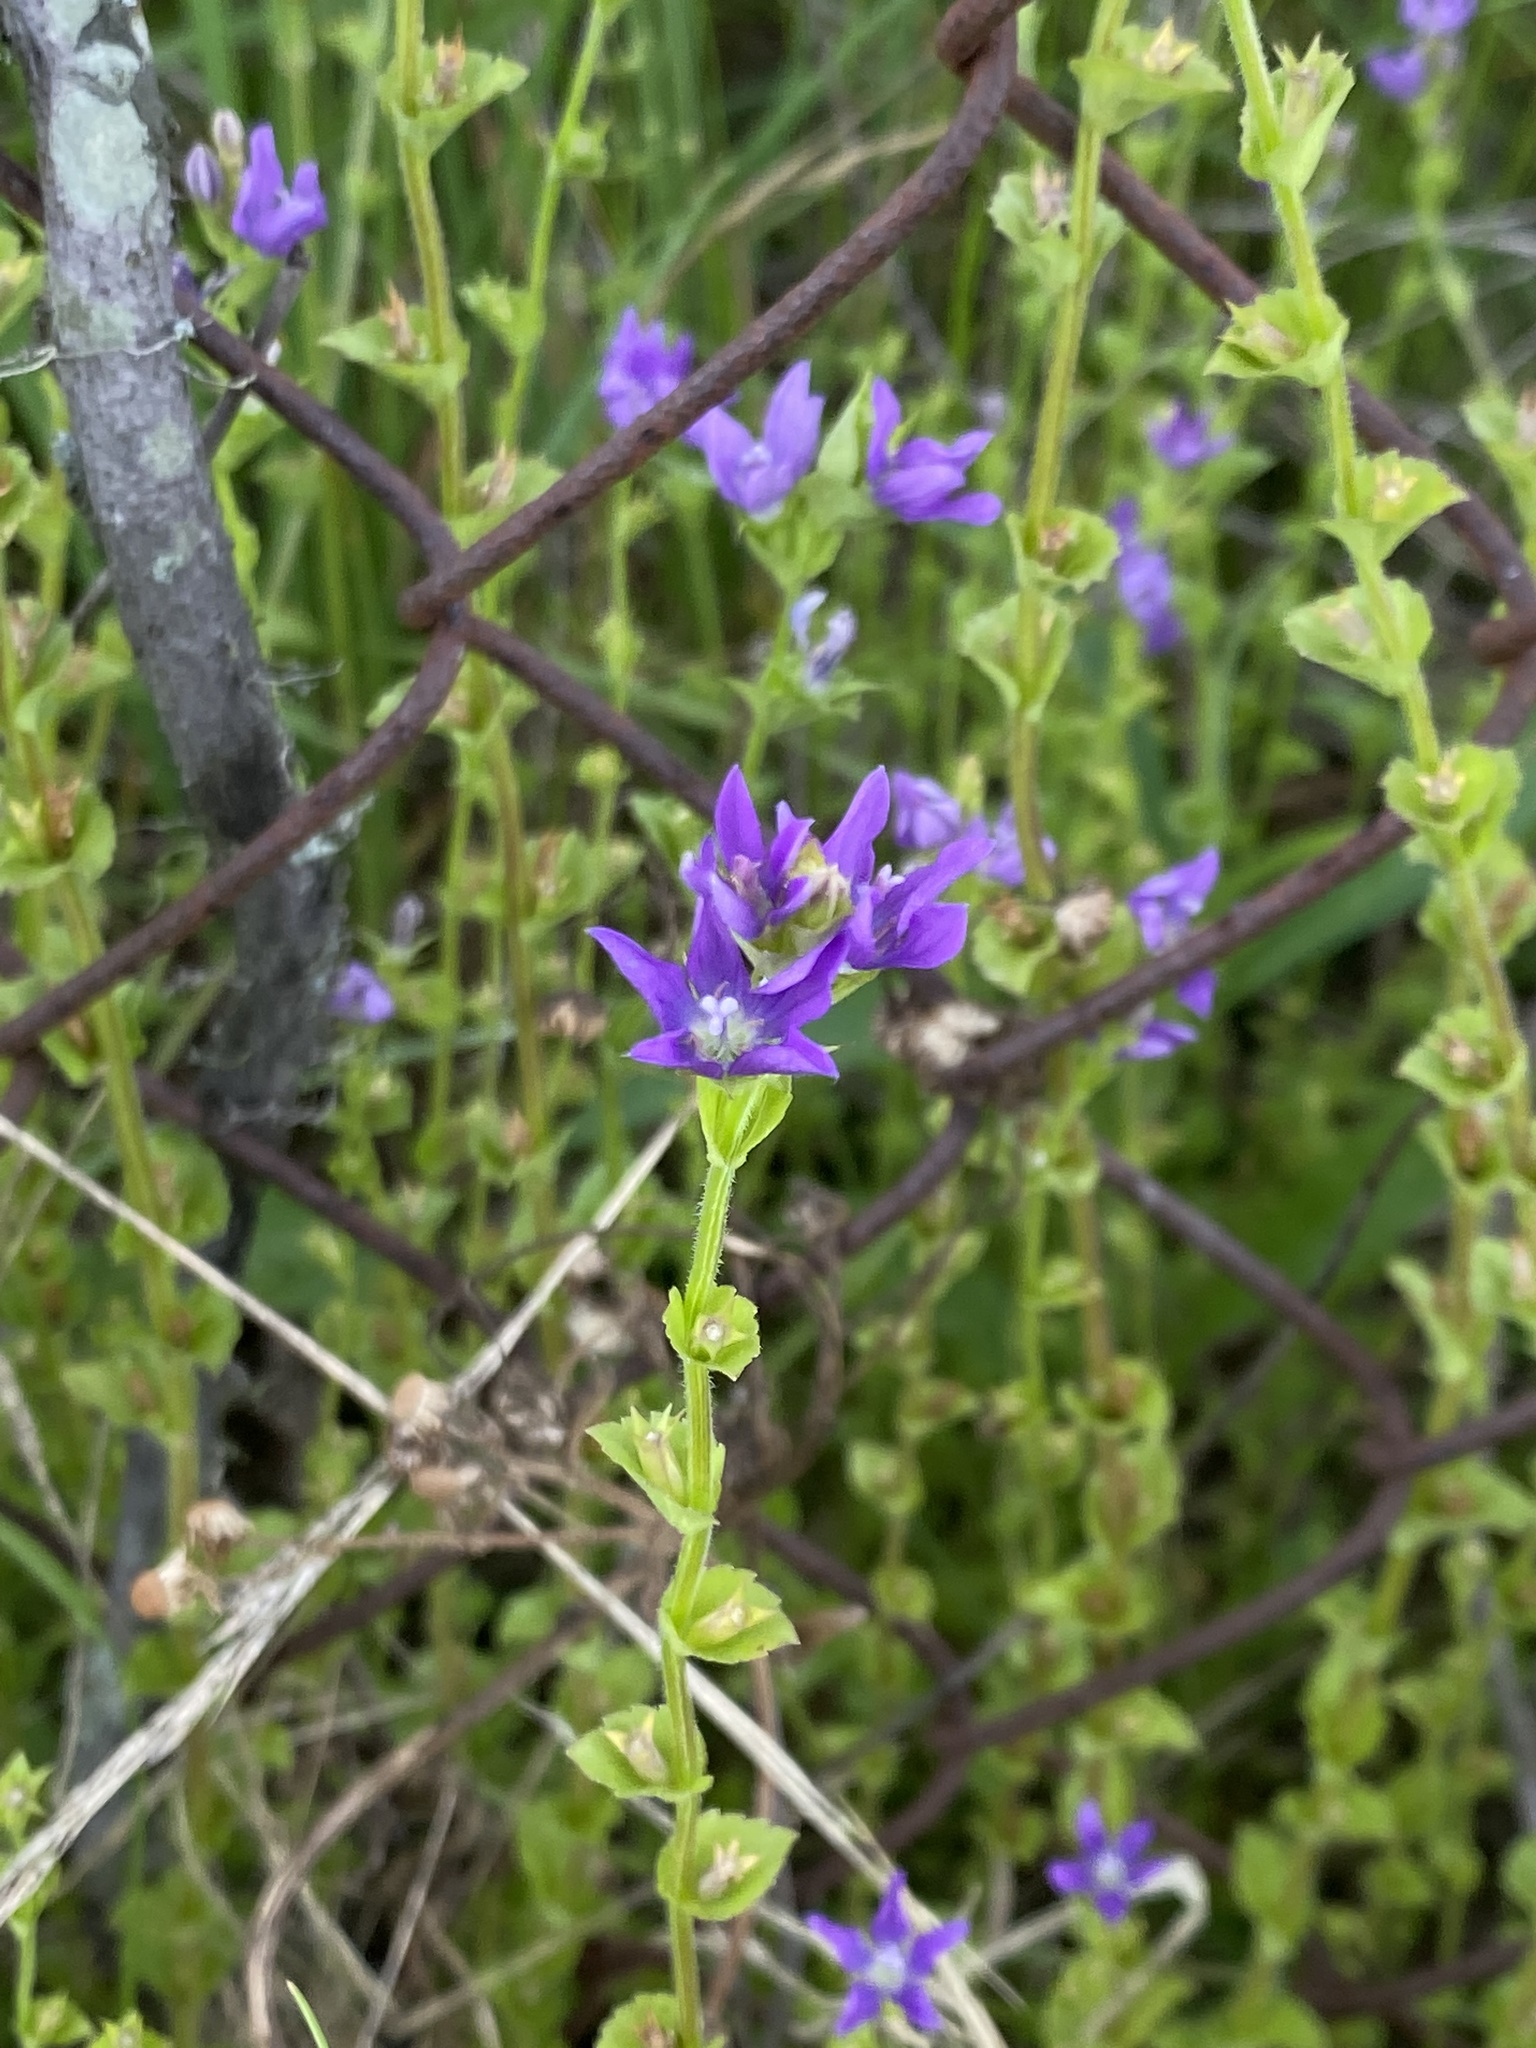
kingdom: Plantae
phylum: Tracheophyta
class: Magnoliopsida
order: Asterales
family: Campanulaceae
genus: Triodanis
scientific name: Triodanis perfoliata
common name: Clasping venus' looking-glass
